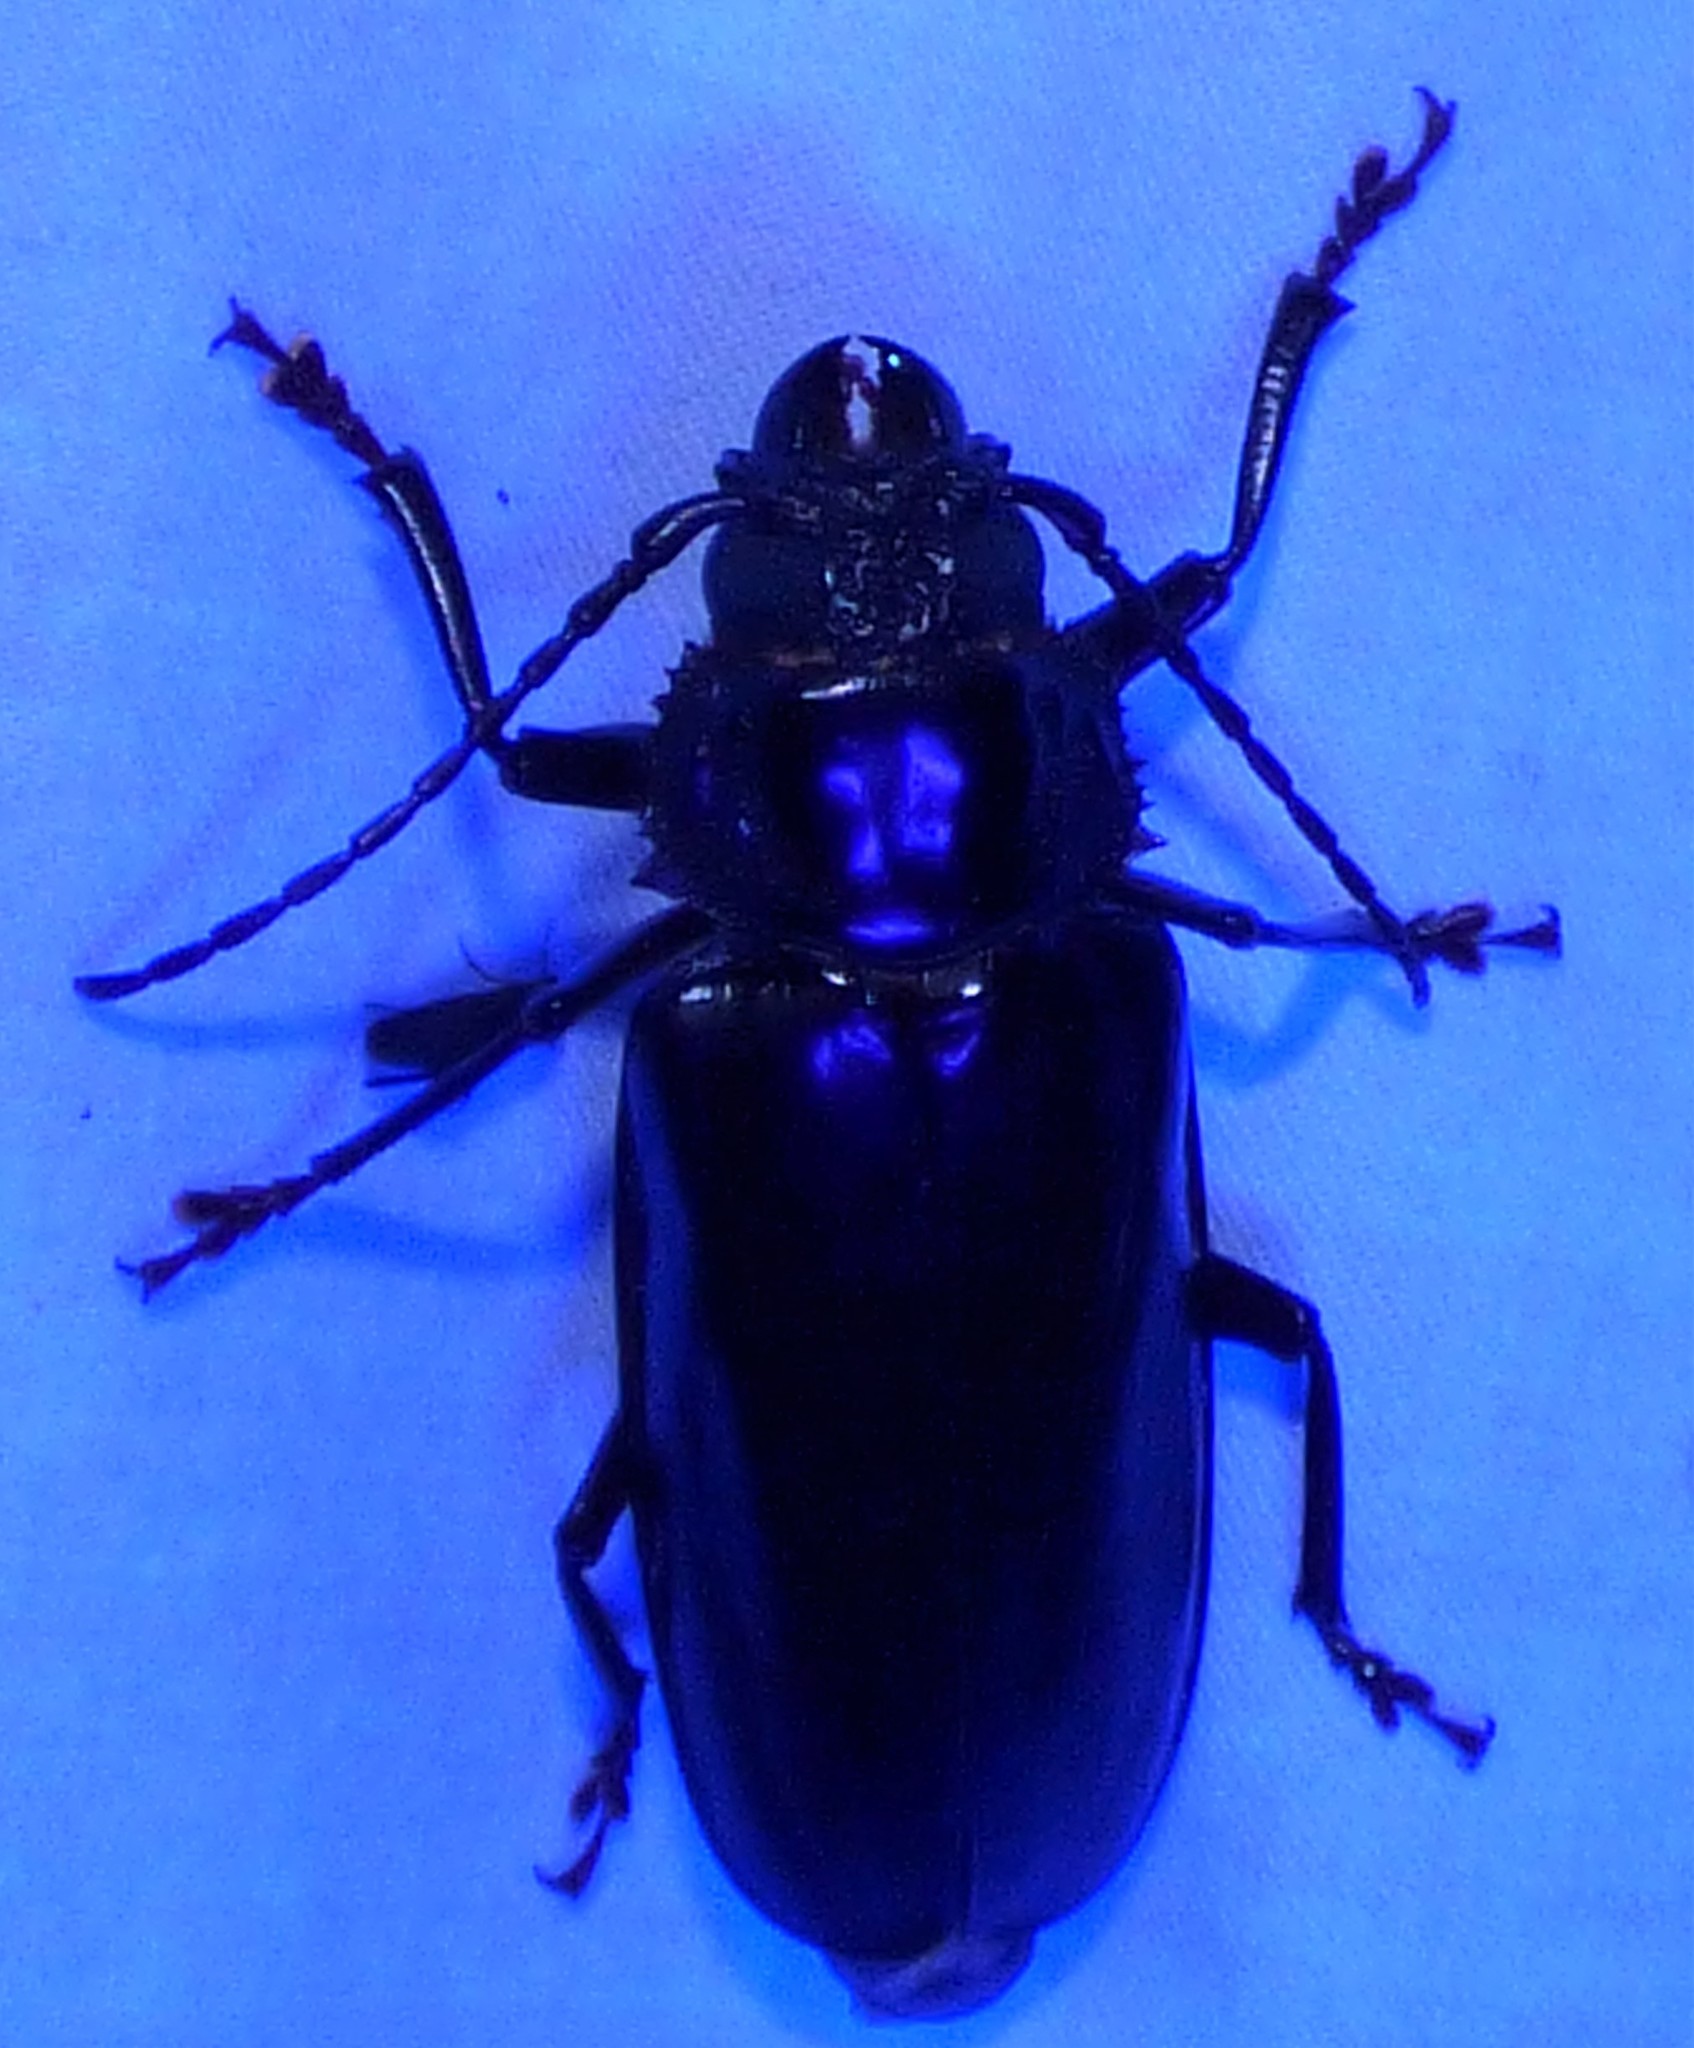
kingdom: Animalia
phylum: Arthropoda
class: Insecta
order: Coleoptera
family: Cerambycidae
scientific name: Cerambycidae
